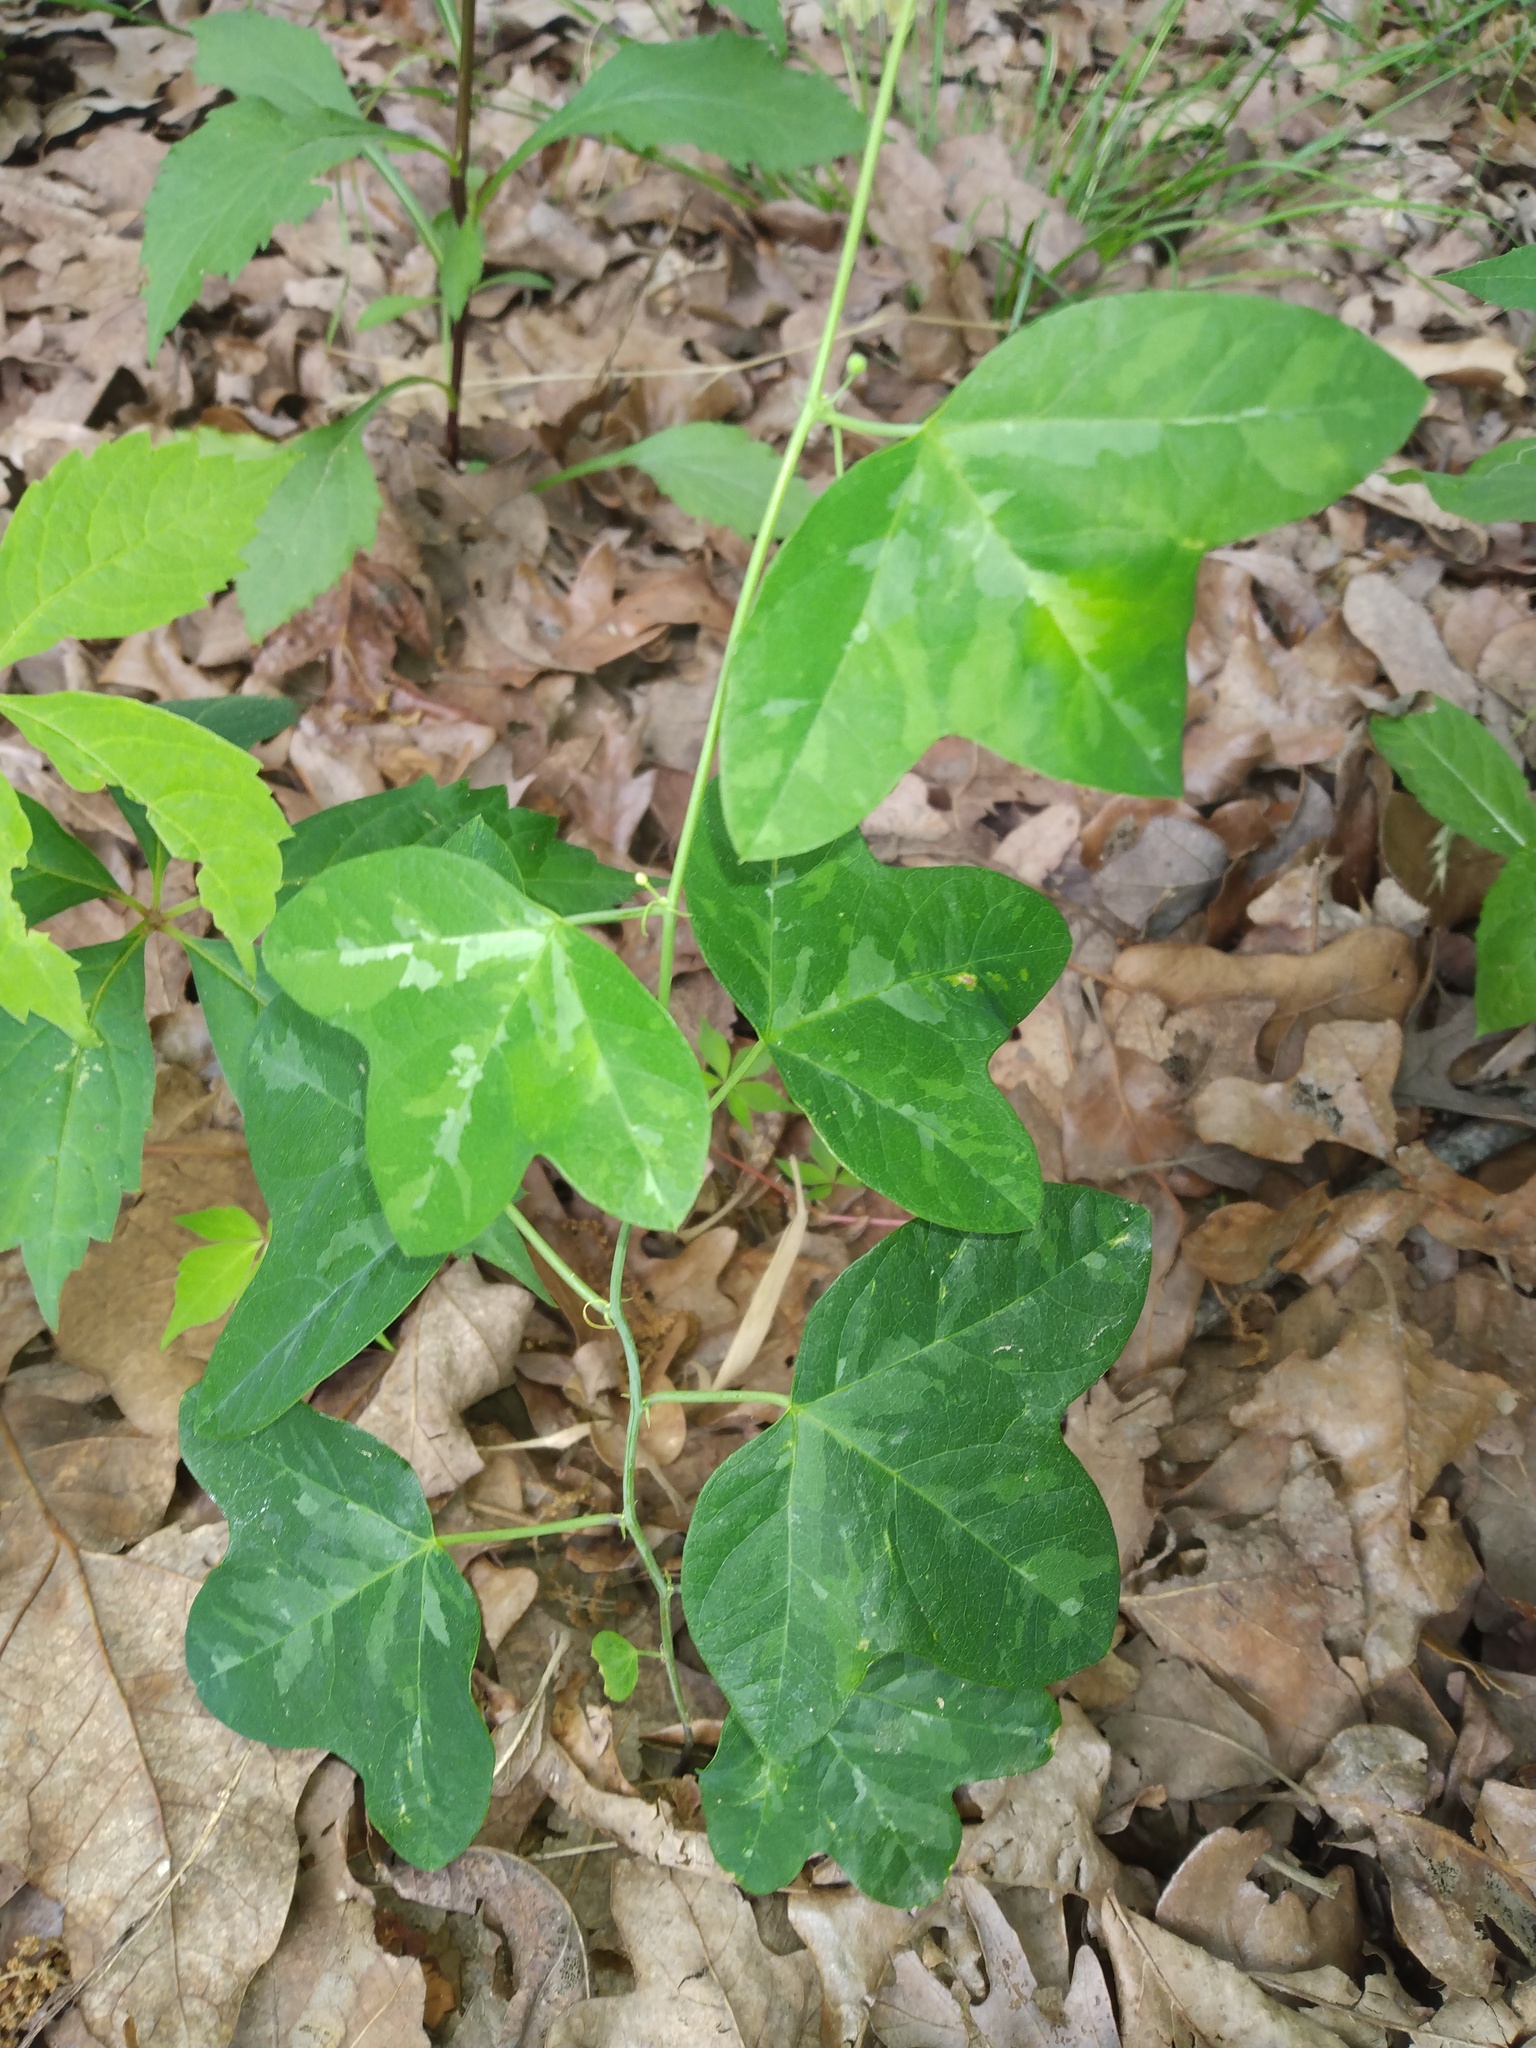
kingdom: Plantae
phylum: Tracheophyta
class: Magnoliopsida
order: Malpighiales
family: Passifloraceae
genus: Passiflora
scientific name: Passiflora lutea
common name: Yellow passionflower
